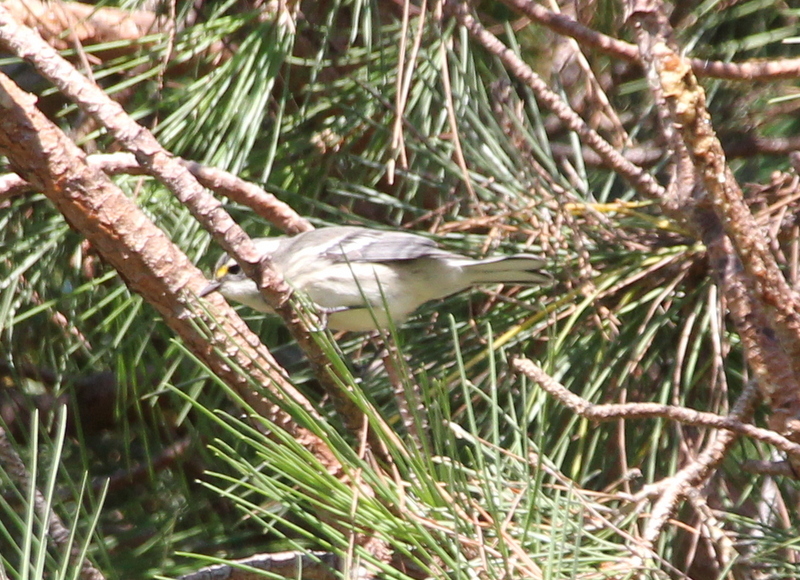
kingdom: Animalia
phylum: Chordata
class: Aves
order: Passeriformes
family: Parulidae
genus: Setophaga
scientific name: Setophaga nigrescens
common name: Black-throated gray warbler
